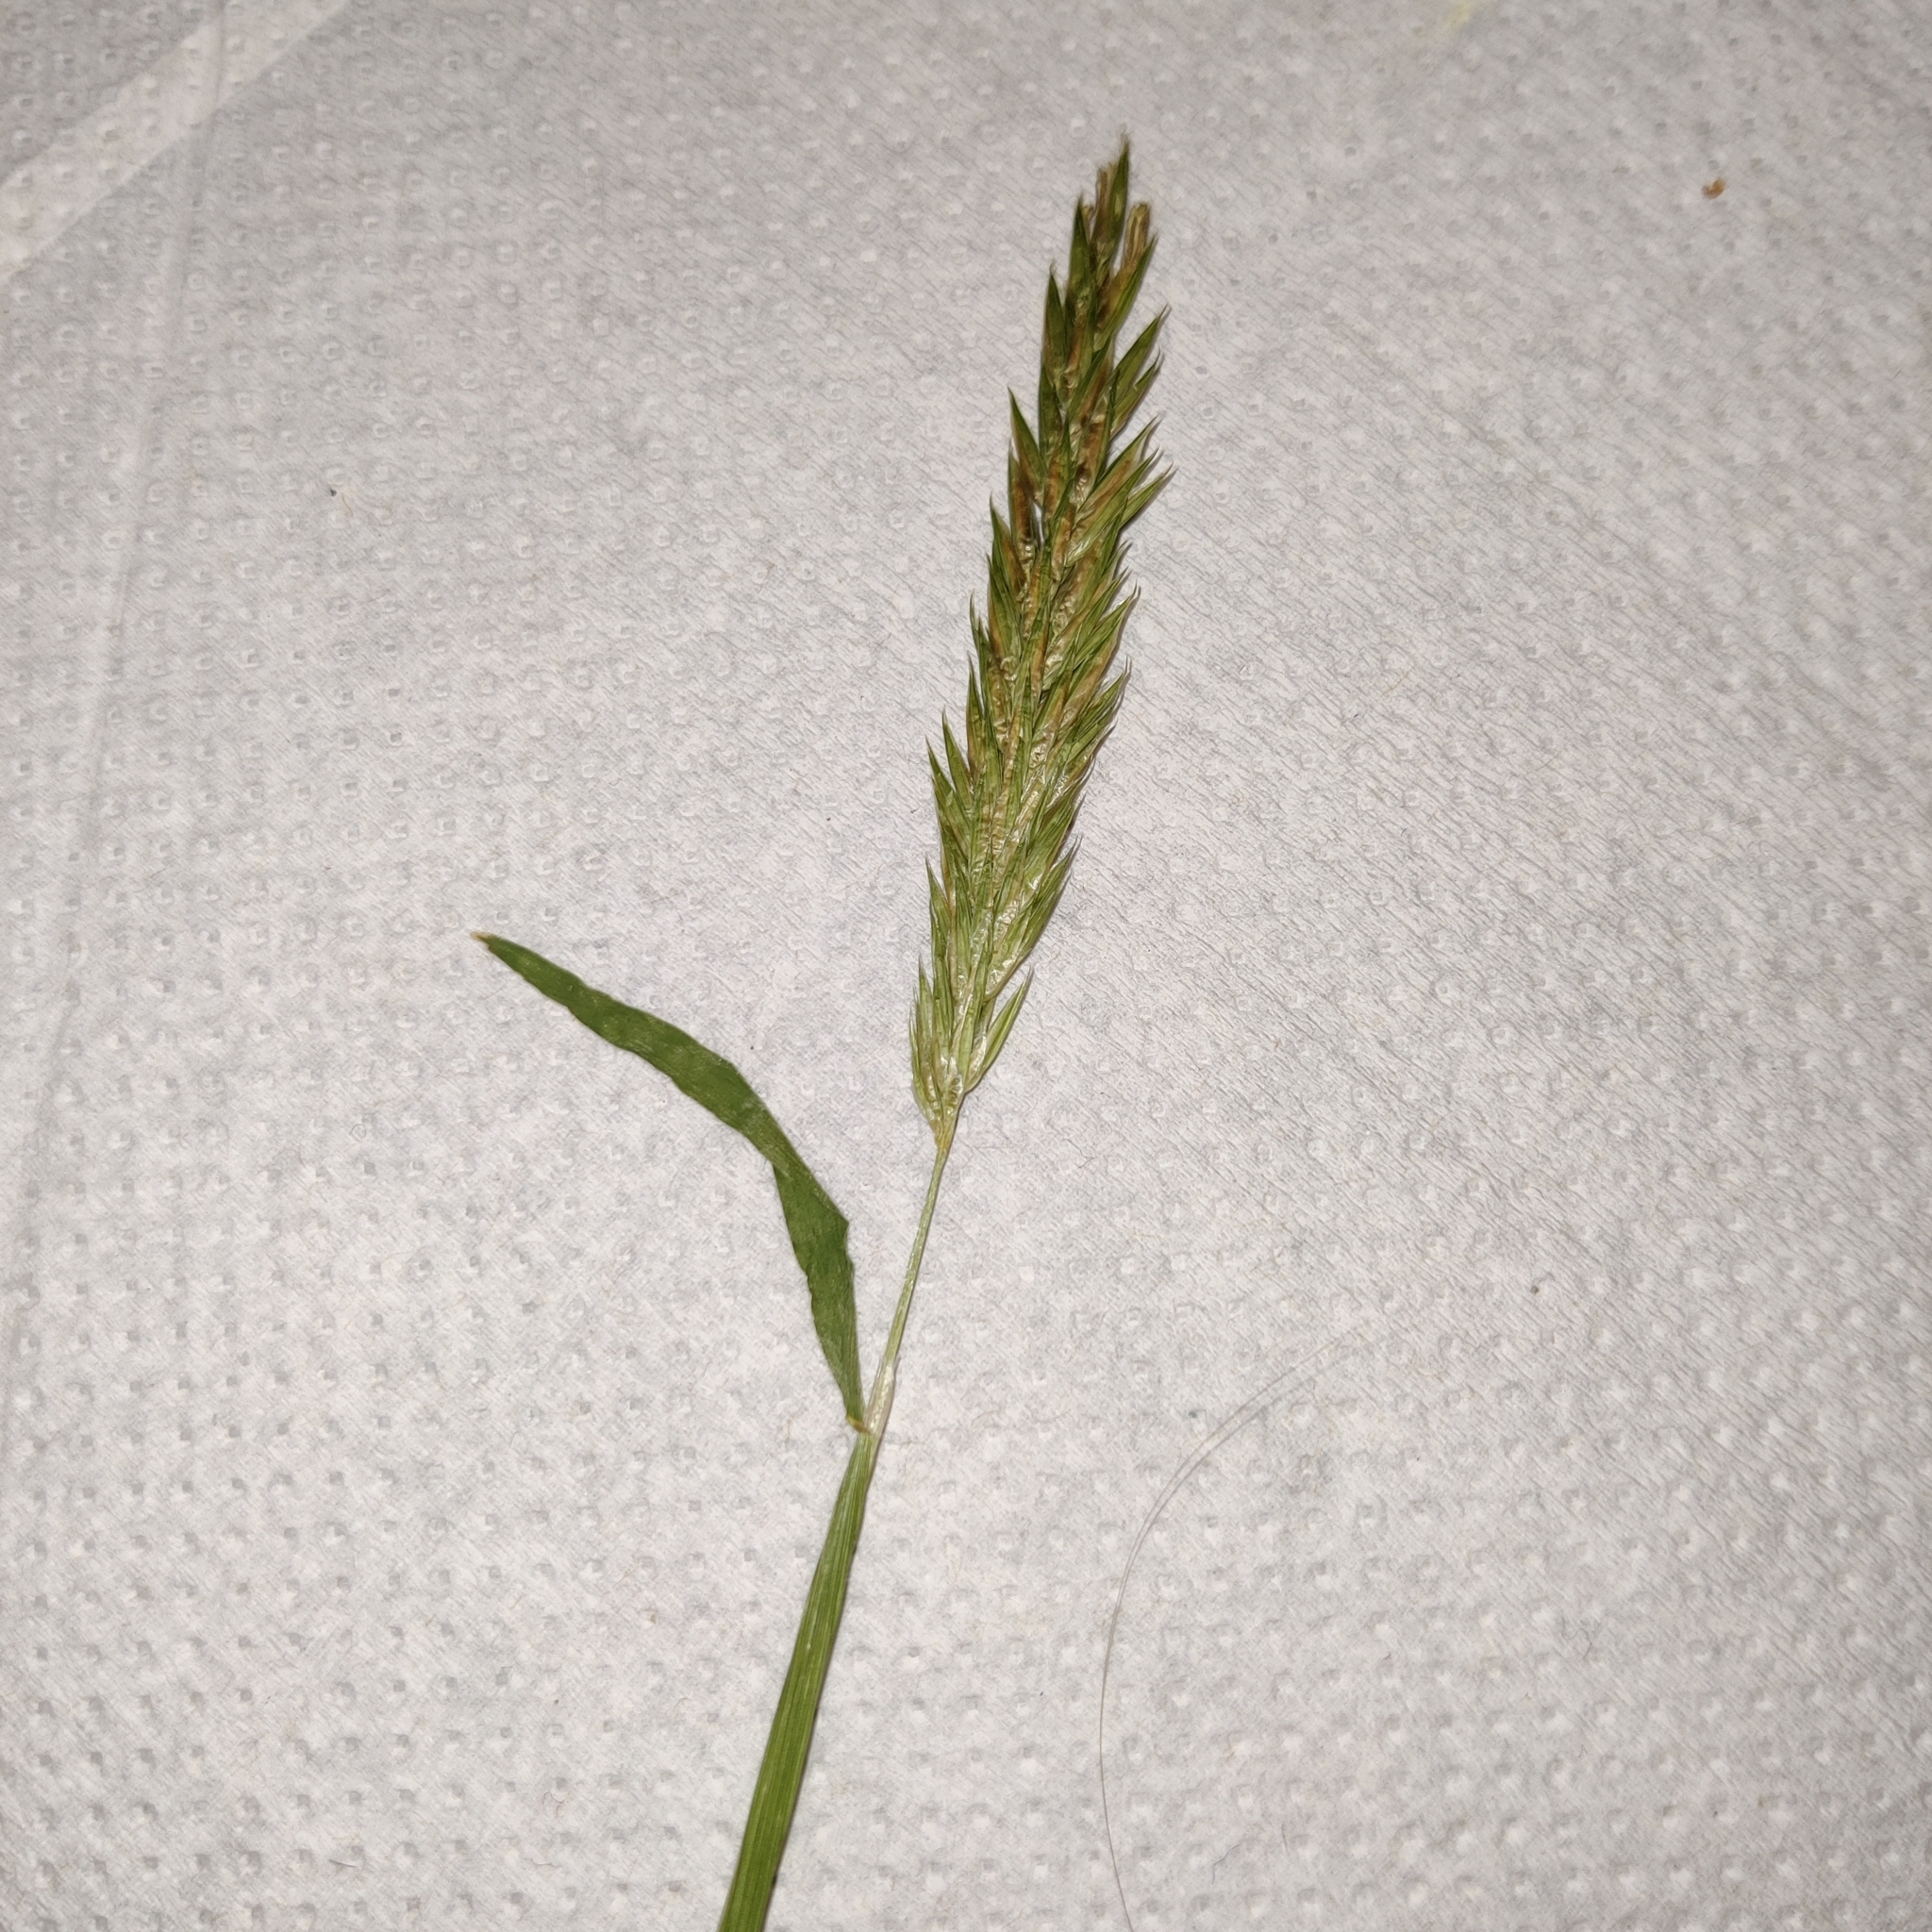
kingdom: Plantae
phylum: Tracheophyta
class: Liliopsida
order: Poales
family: Poaceae
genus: Anthoxanthum
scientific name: Anthoxanthum odoratum
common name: Sweet vernalgrass
